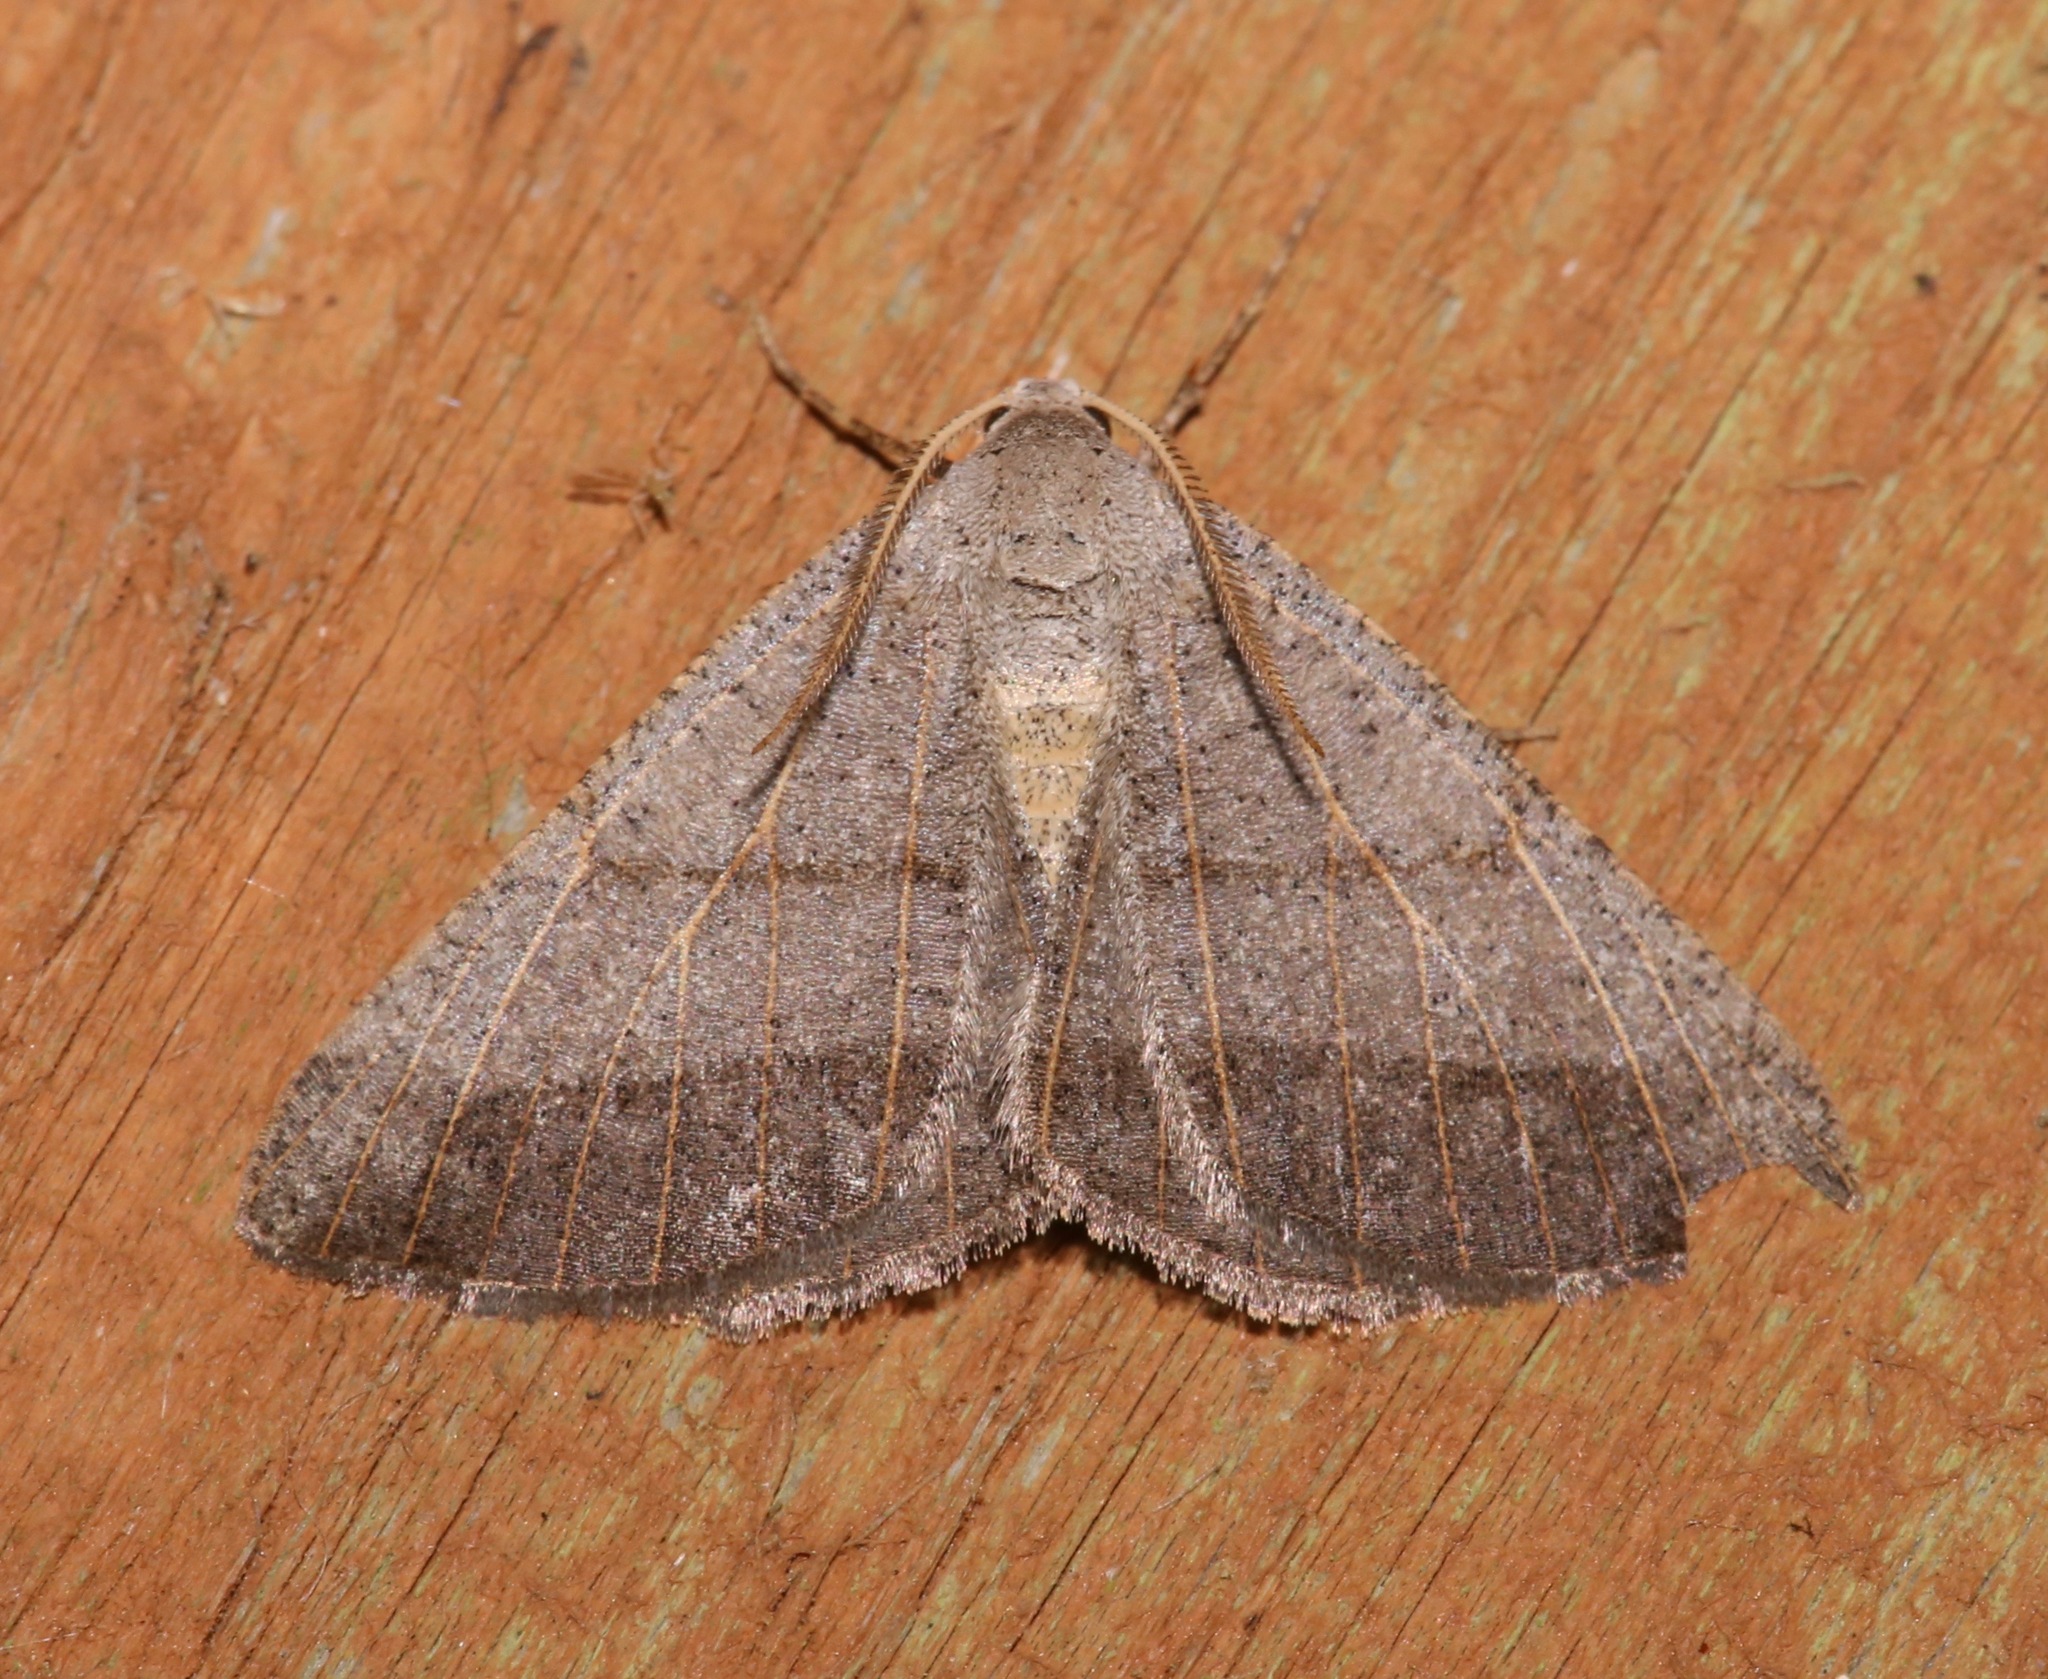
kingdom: Animalia
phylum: Arthropoda
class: Insecta
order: Lepidoptera
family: Geometridae
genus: Isturgia
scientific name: Isturgia dislocaria
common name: Pale-viened enconista
